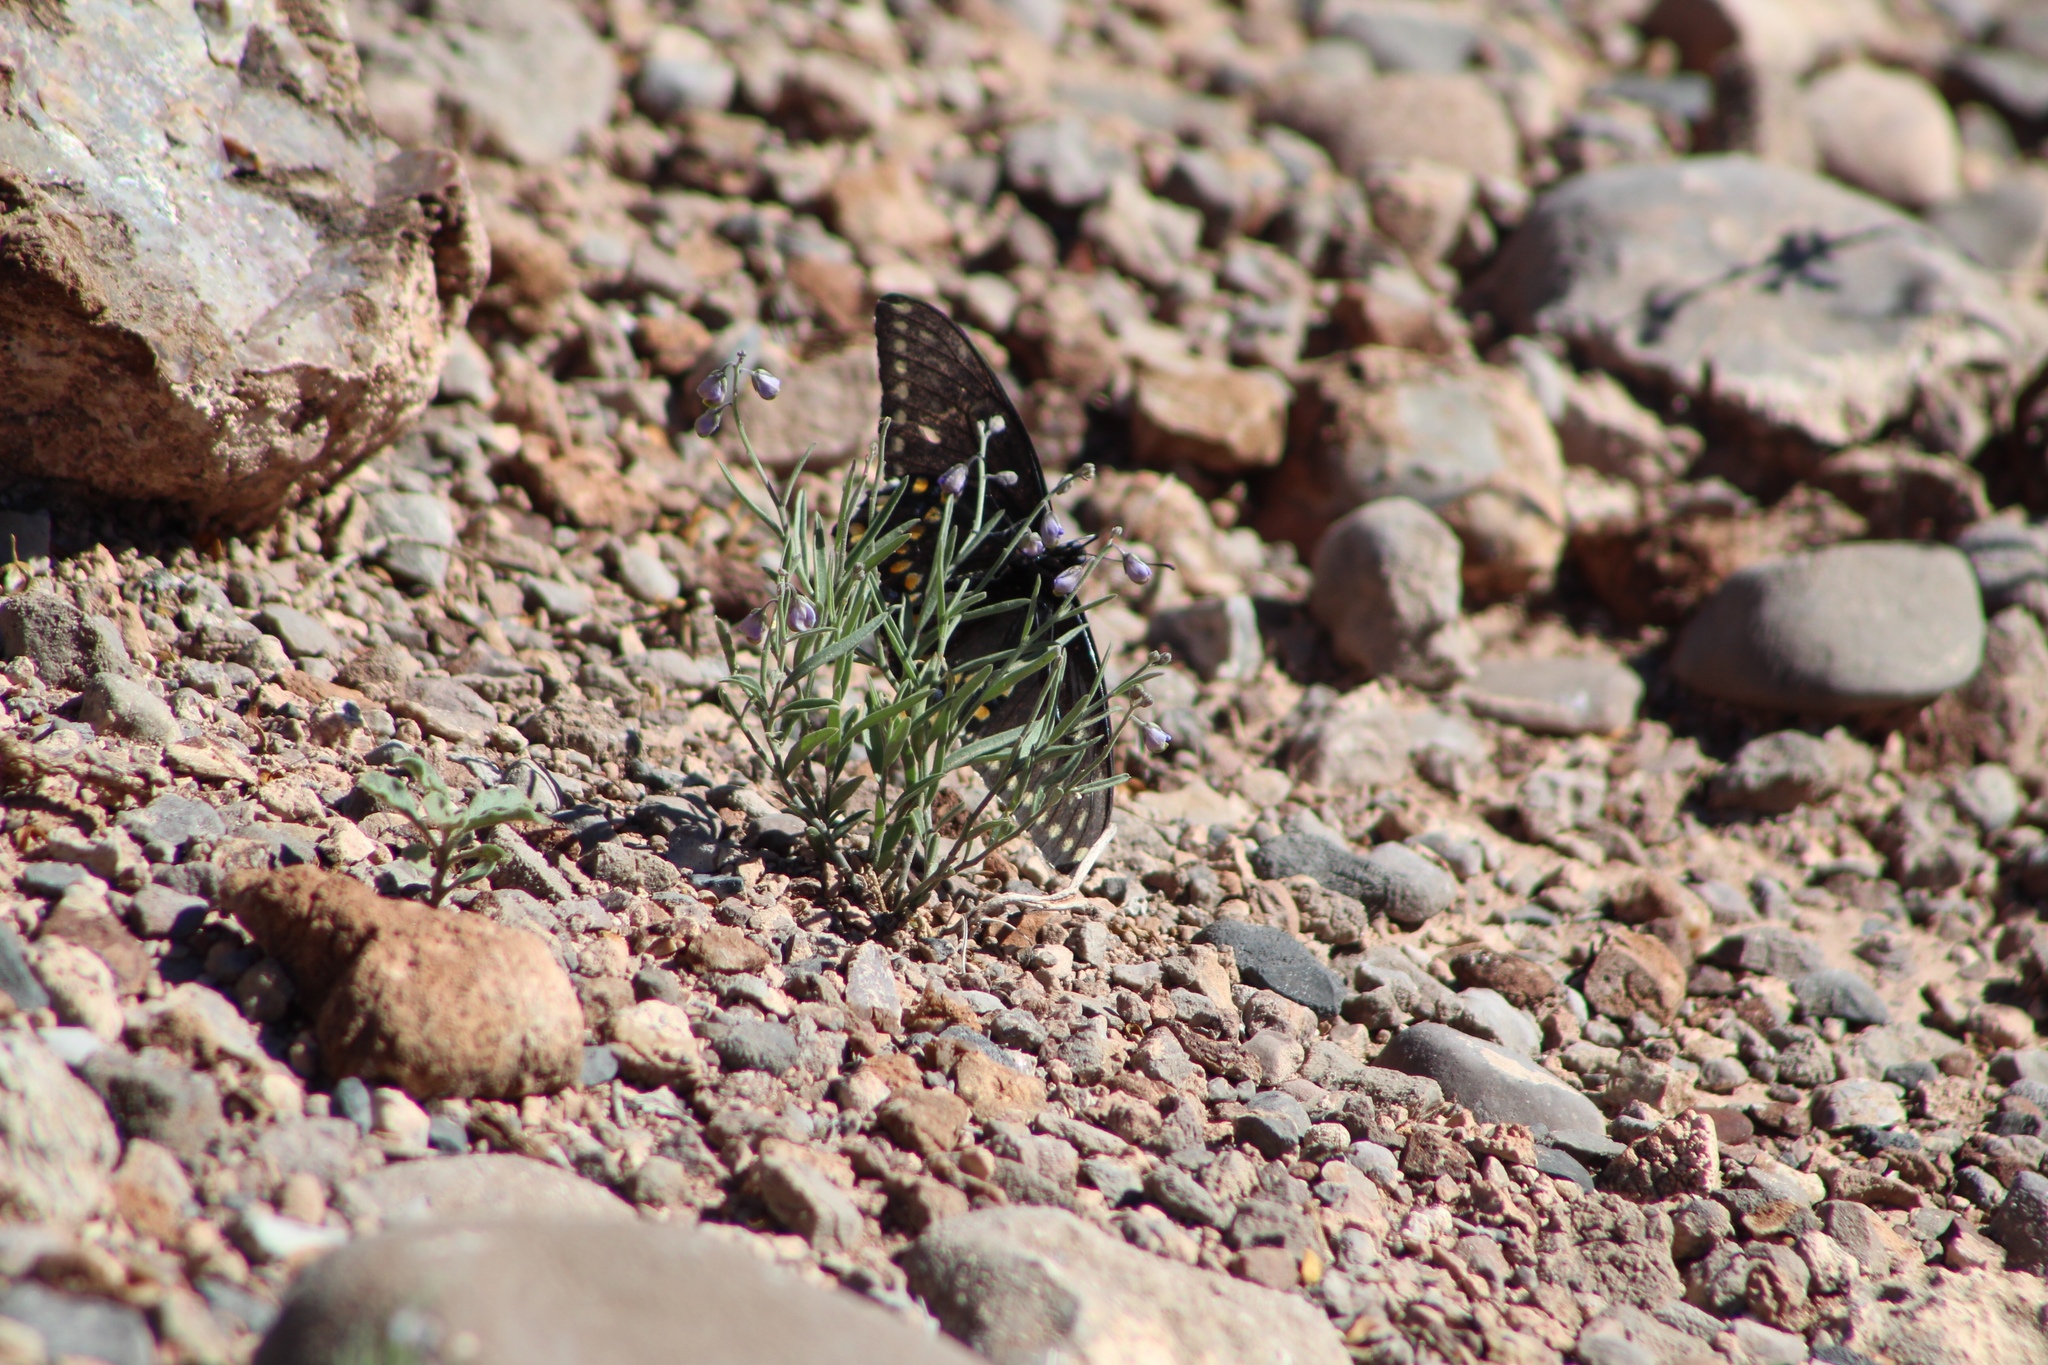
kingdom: Animalia
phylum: Arthropoda
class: Insecta
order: Lepidoptera
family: Papilionidae
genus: Papilio
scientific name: Papilio polyxenes
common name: Black swallowtail
